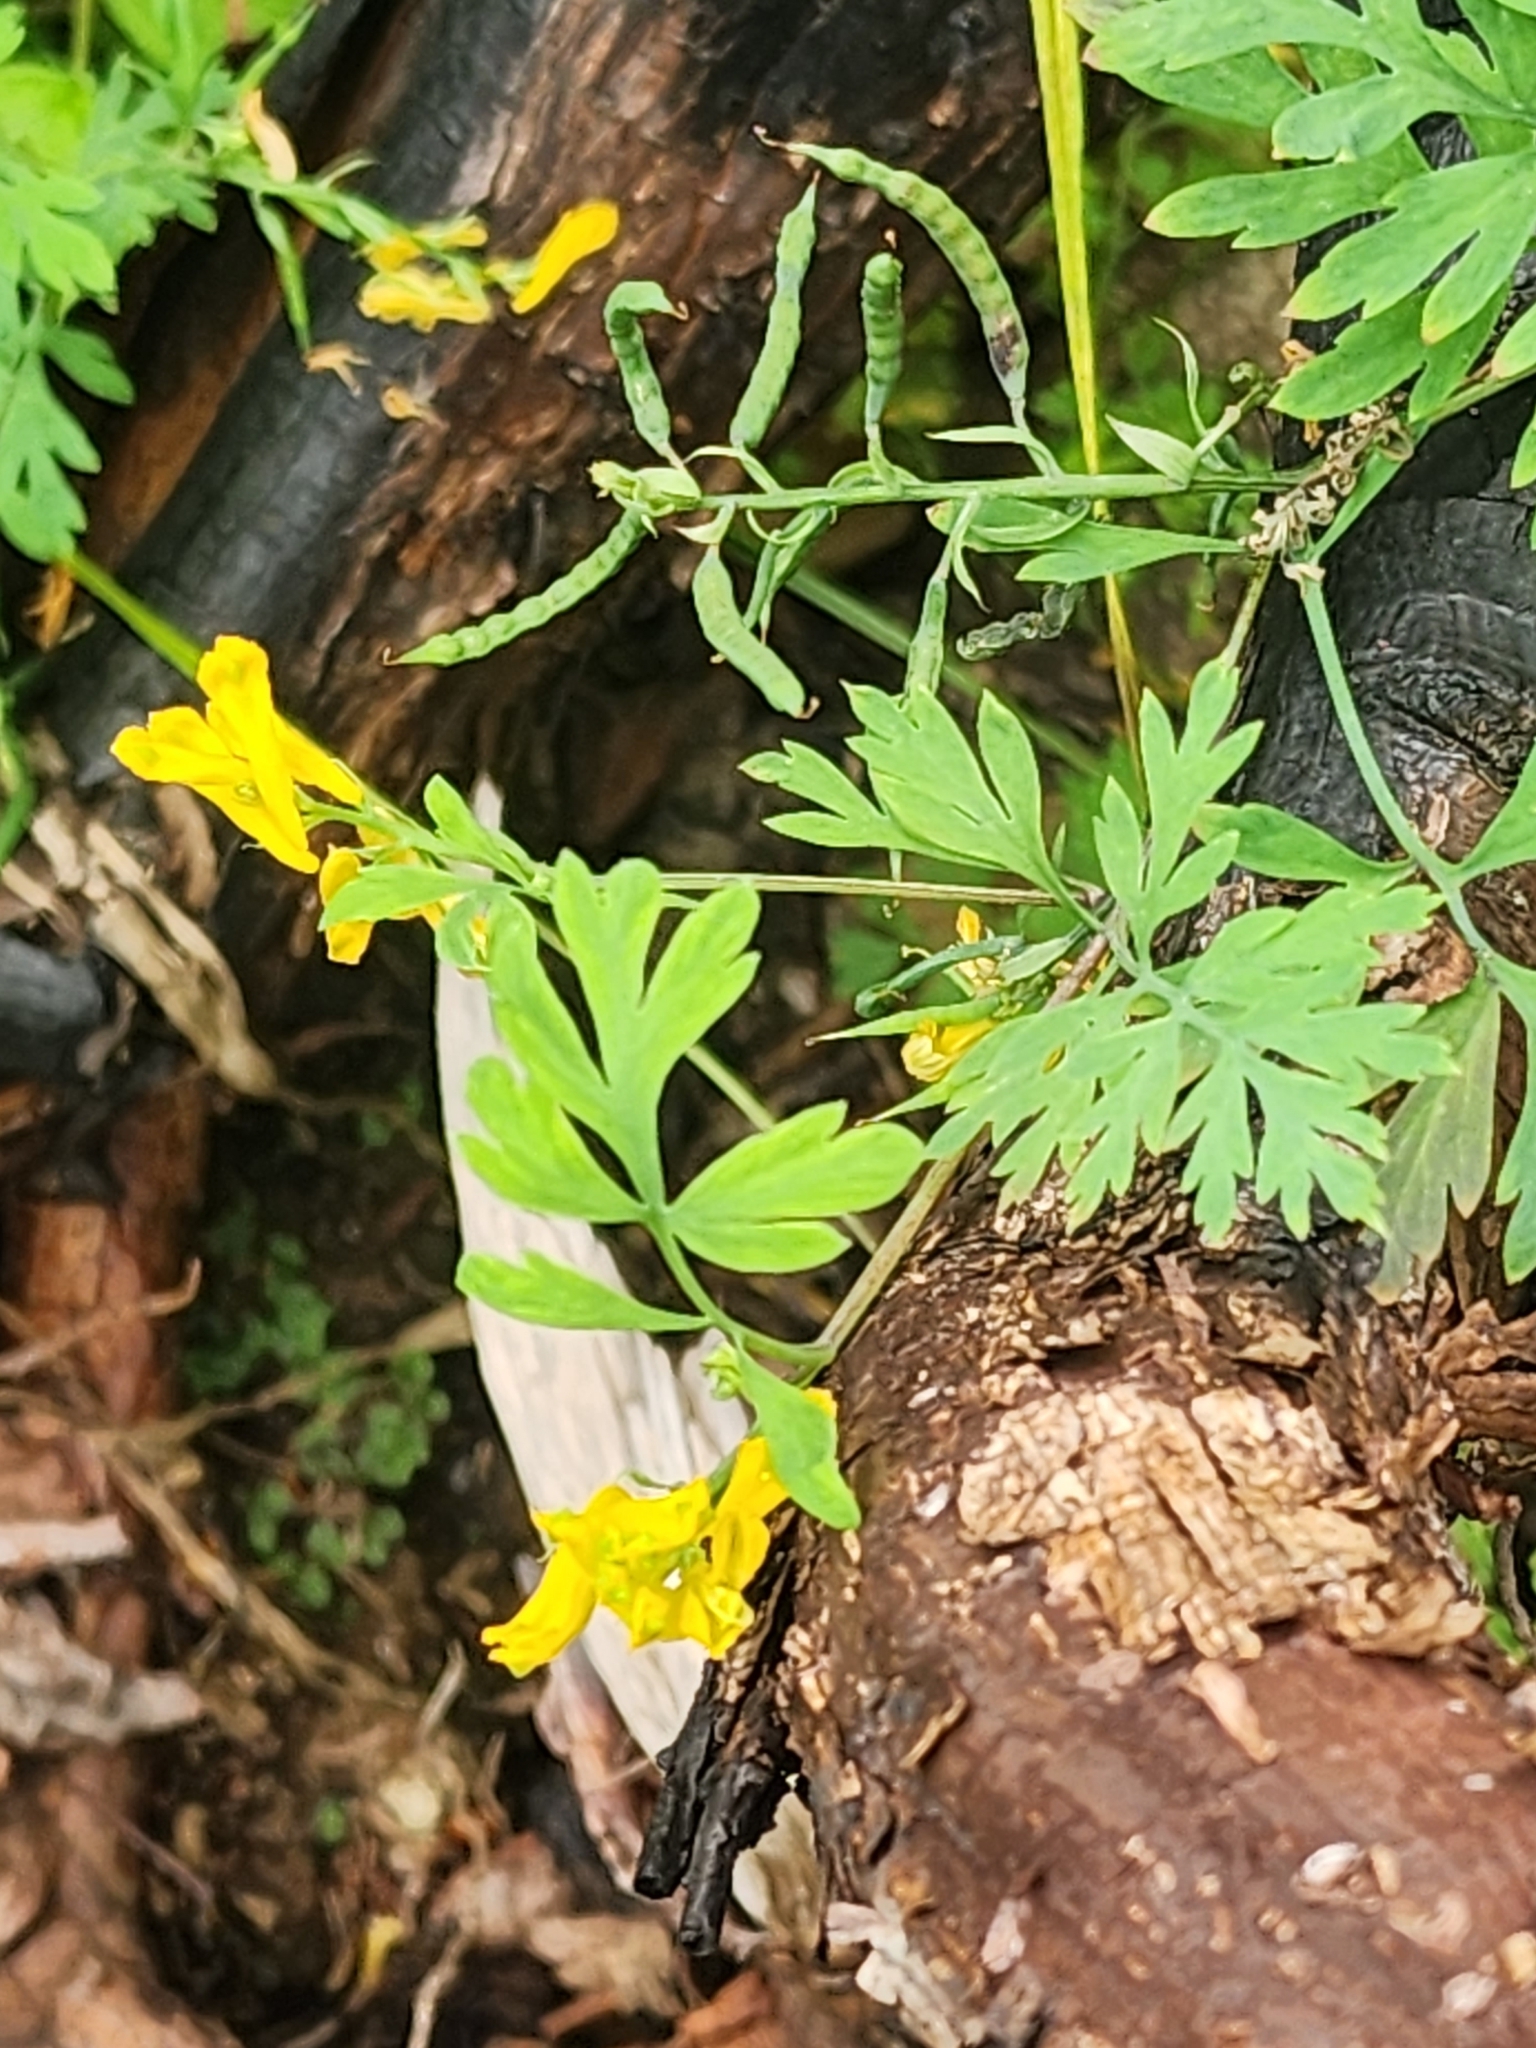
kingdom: Plantae
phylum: Tracheophyta
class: Magnoliopsida
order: Ranunculales
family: Papaveraceae
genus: Corydalis
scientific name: Corydalis aurea
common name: Golden corydalis
